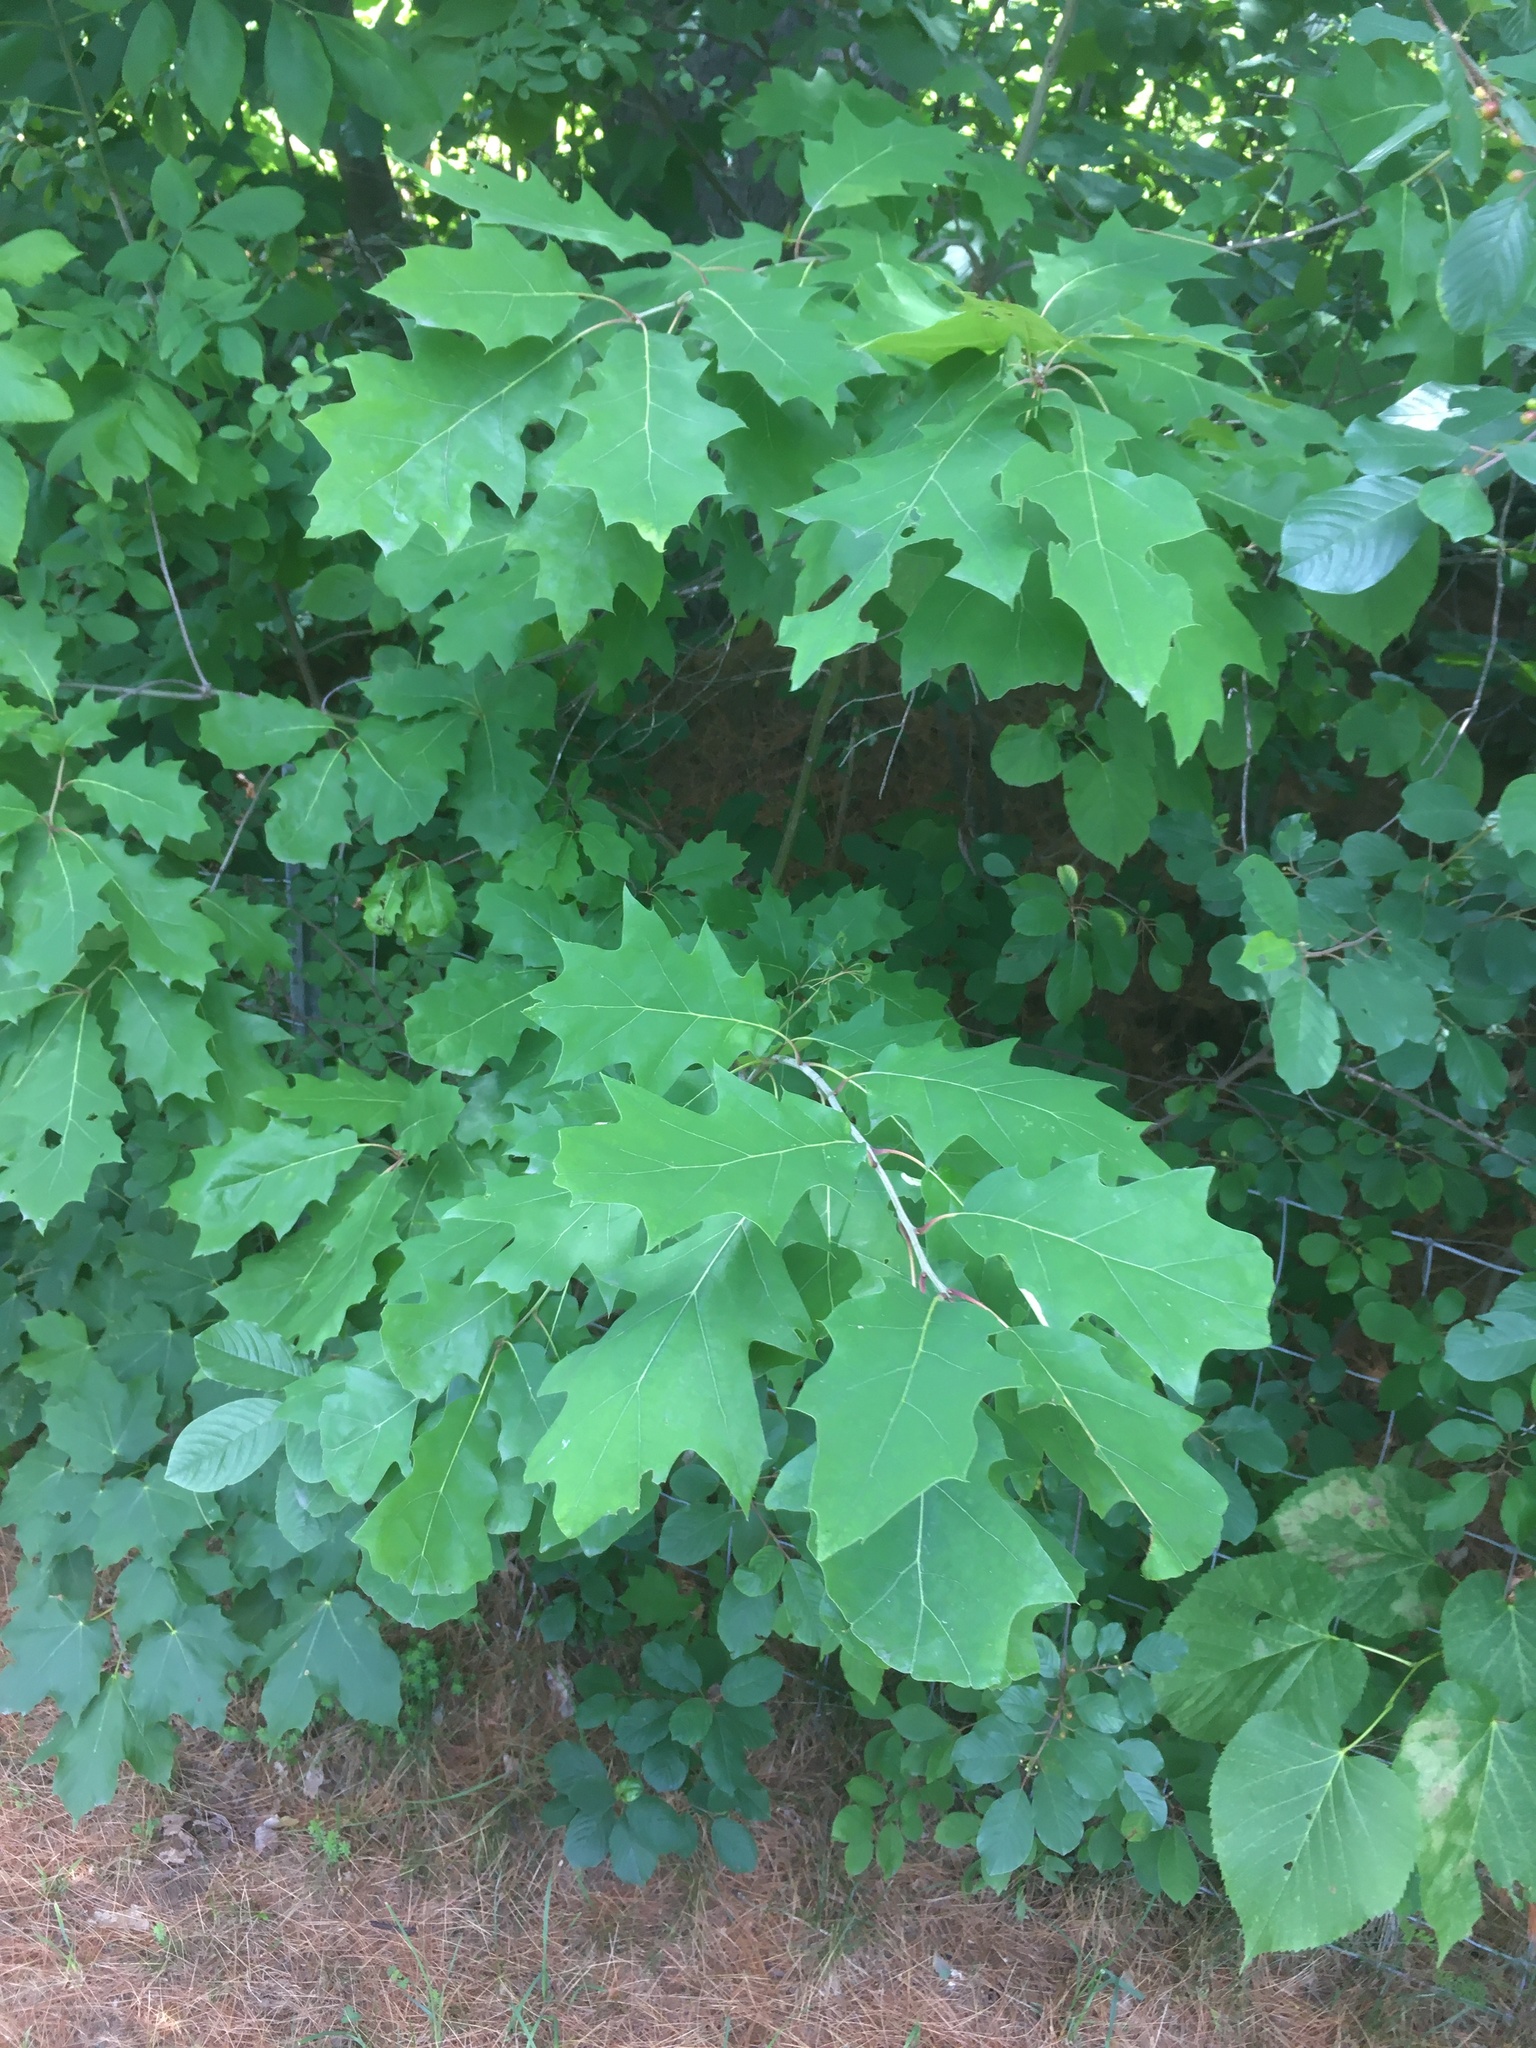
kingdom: Plantae
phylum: Tracheophyta
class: Magnoliopsida
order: Fagales
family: Fagaceae
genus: Quercus
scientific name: Quercus rubra
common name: Red oak
